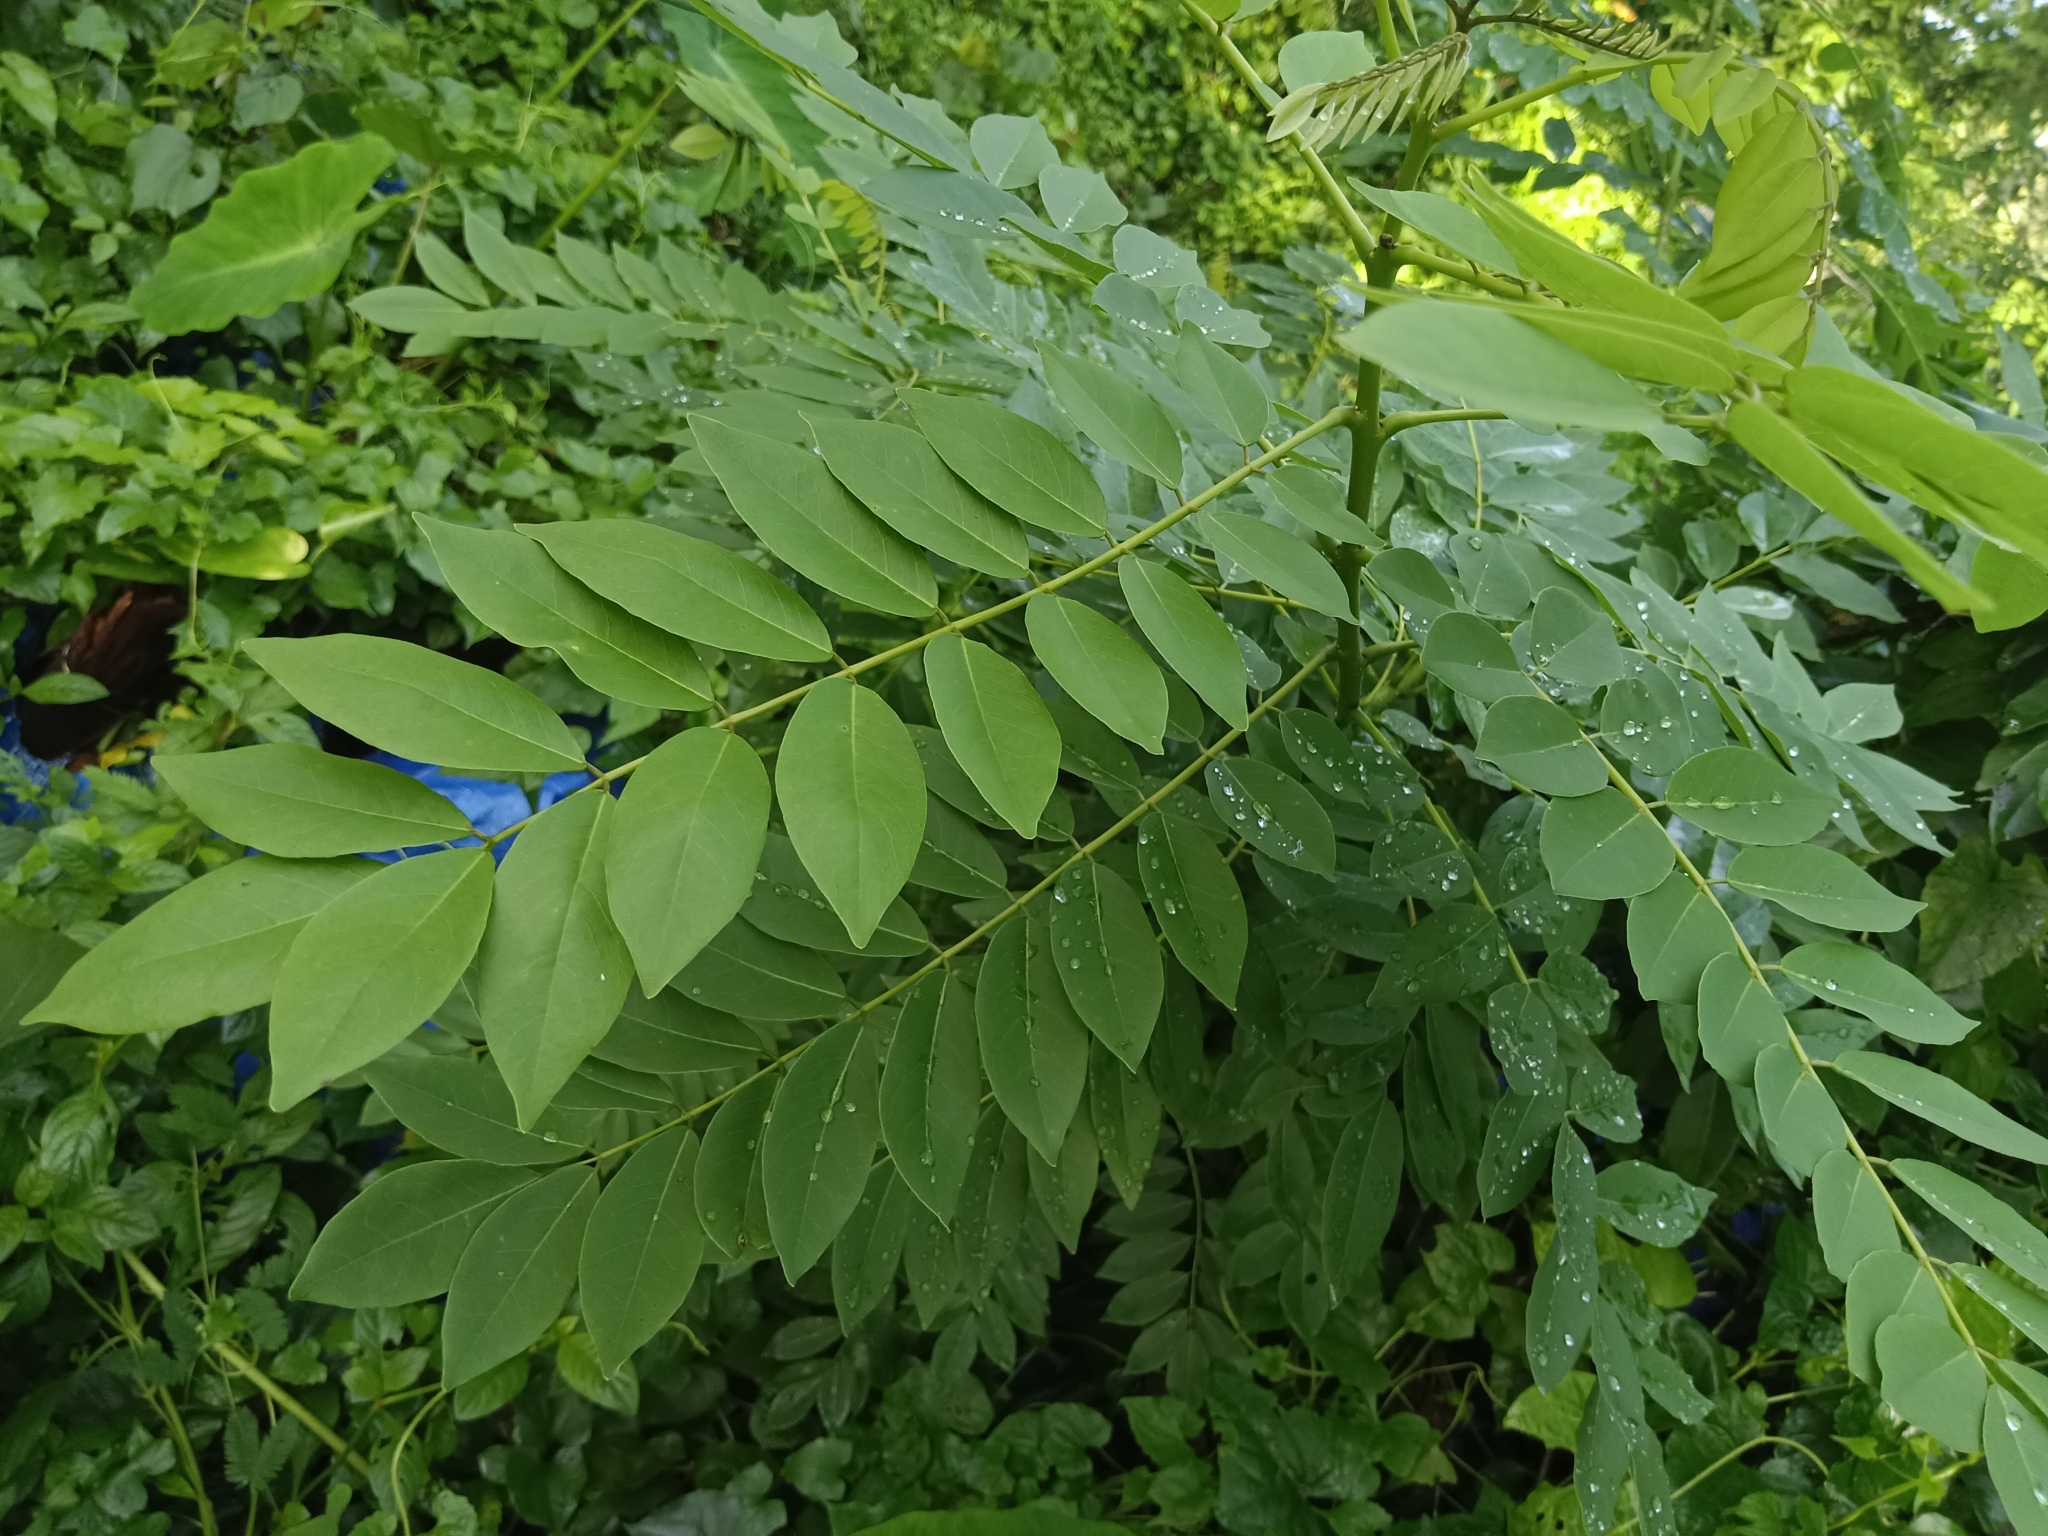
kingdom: Plantae
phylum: Tracheophyta
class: Magnoliopsida
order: Fabales
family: Fabaceae
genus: Gliricidia
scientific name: Gliricidia sepium
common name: Quickstick
